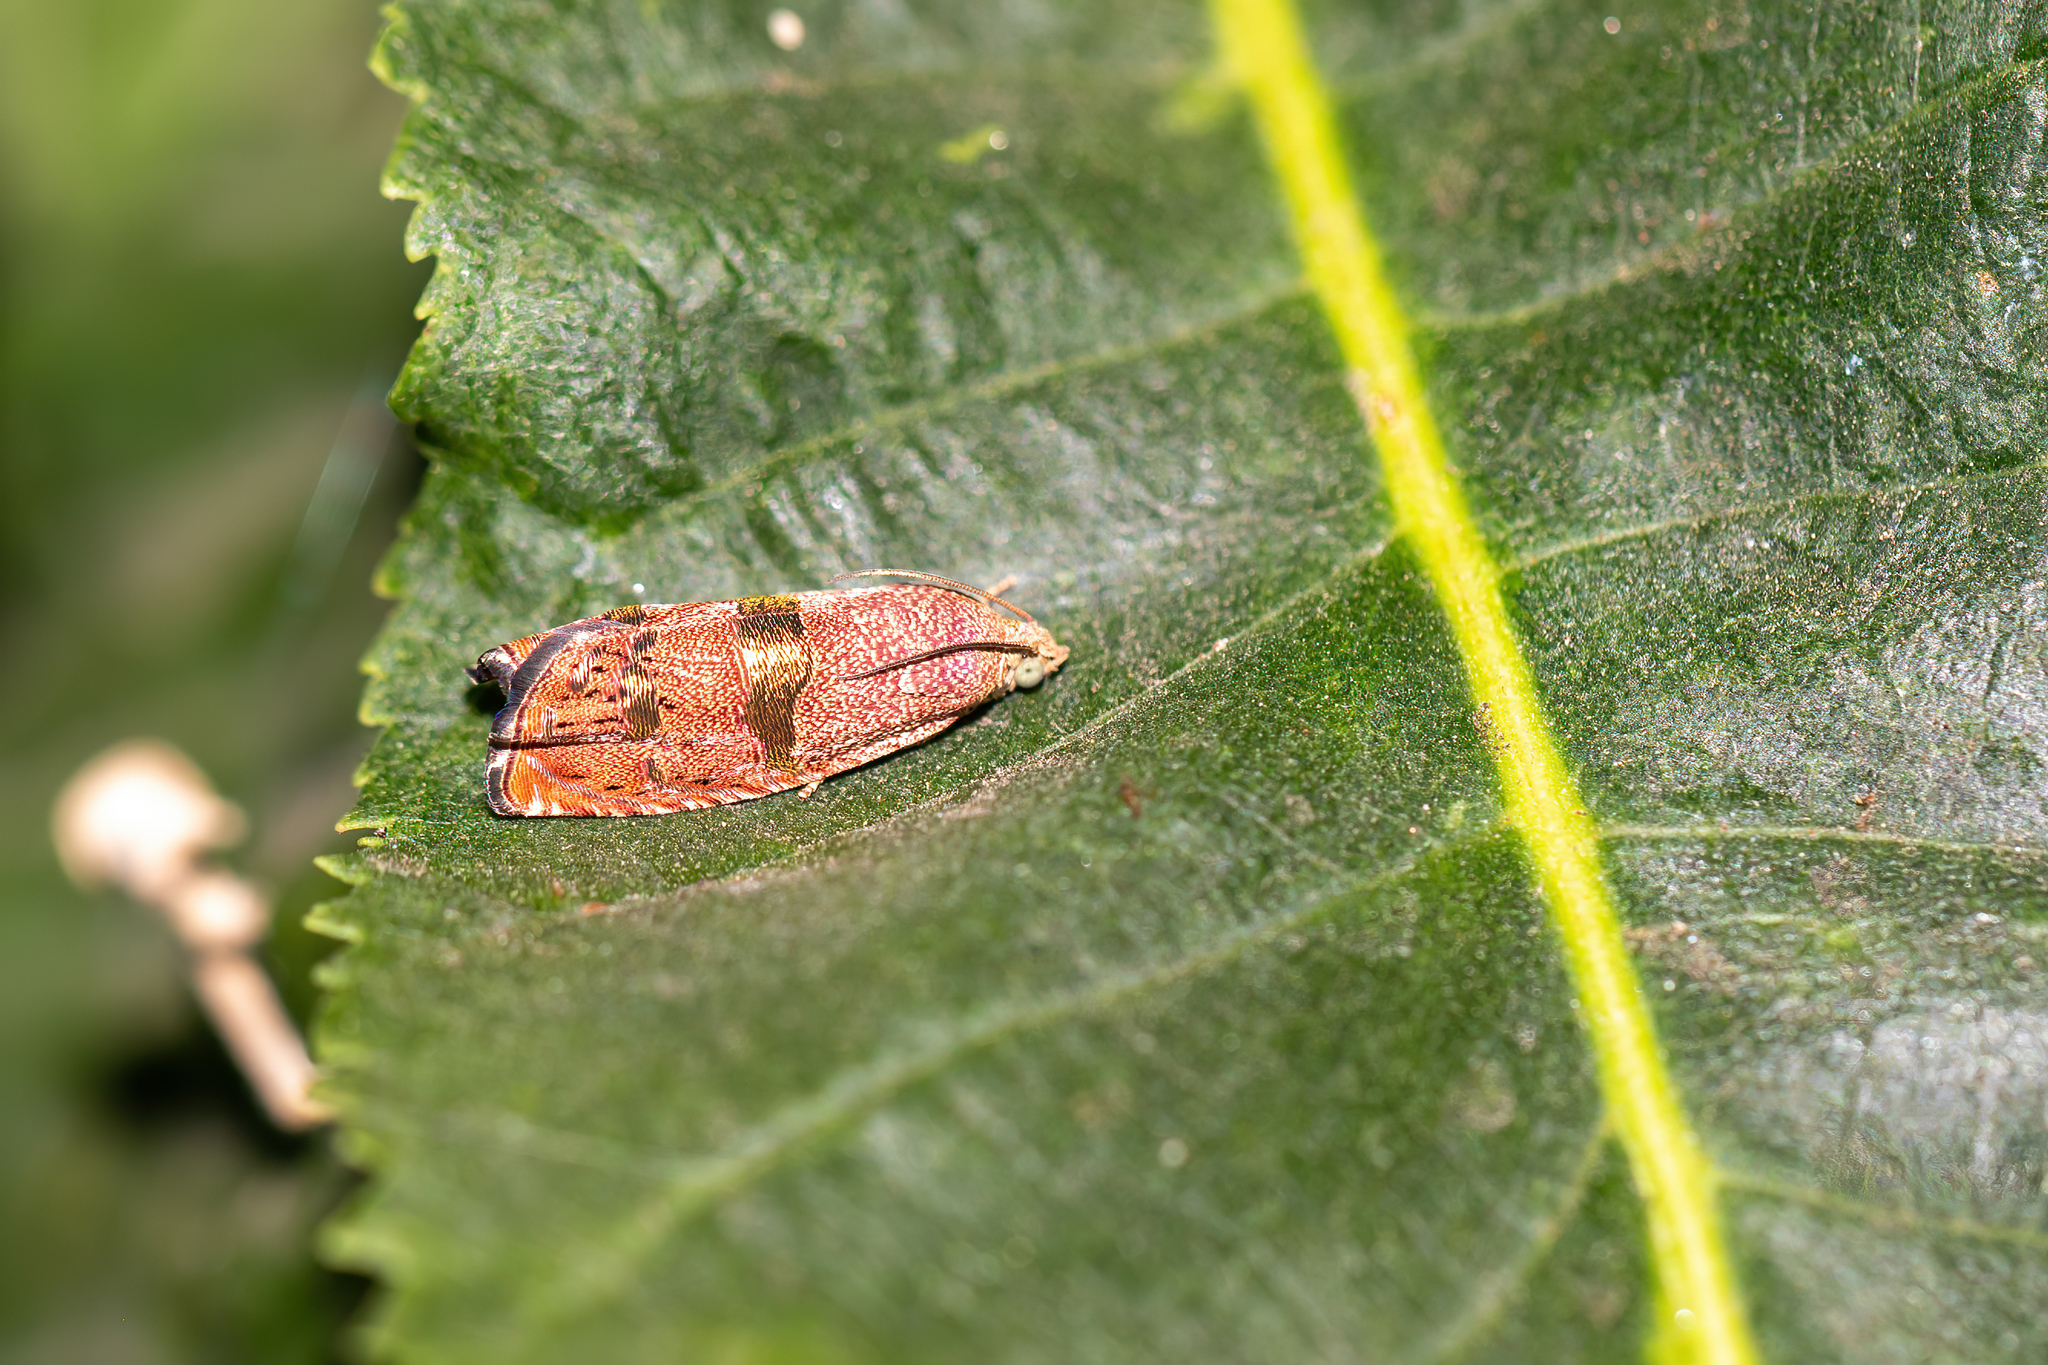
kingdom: Animalia
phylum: Arthropoda
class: Insecta
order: Lepidoptera
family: Tortricidae
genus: Cydia
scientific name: Cydia latiferreana
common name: Filbertworm moth
